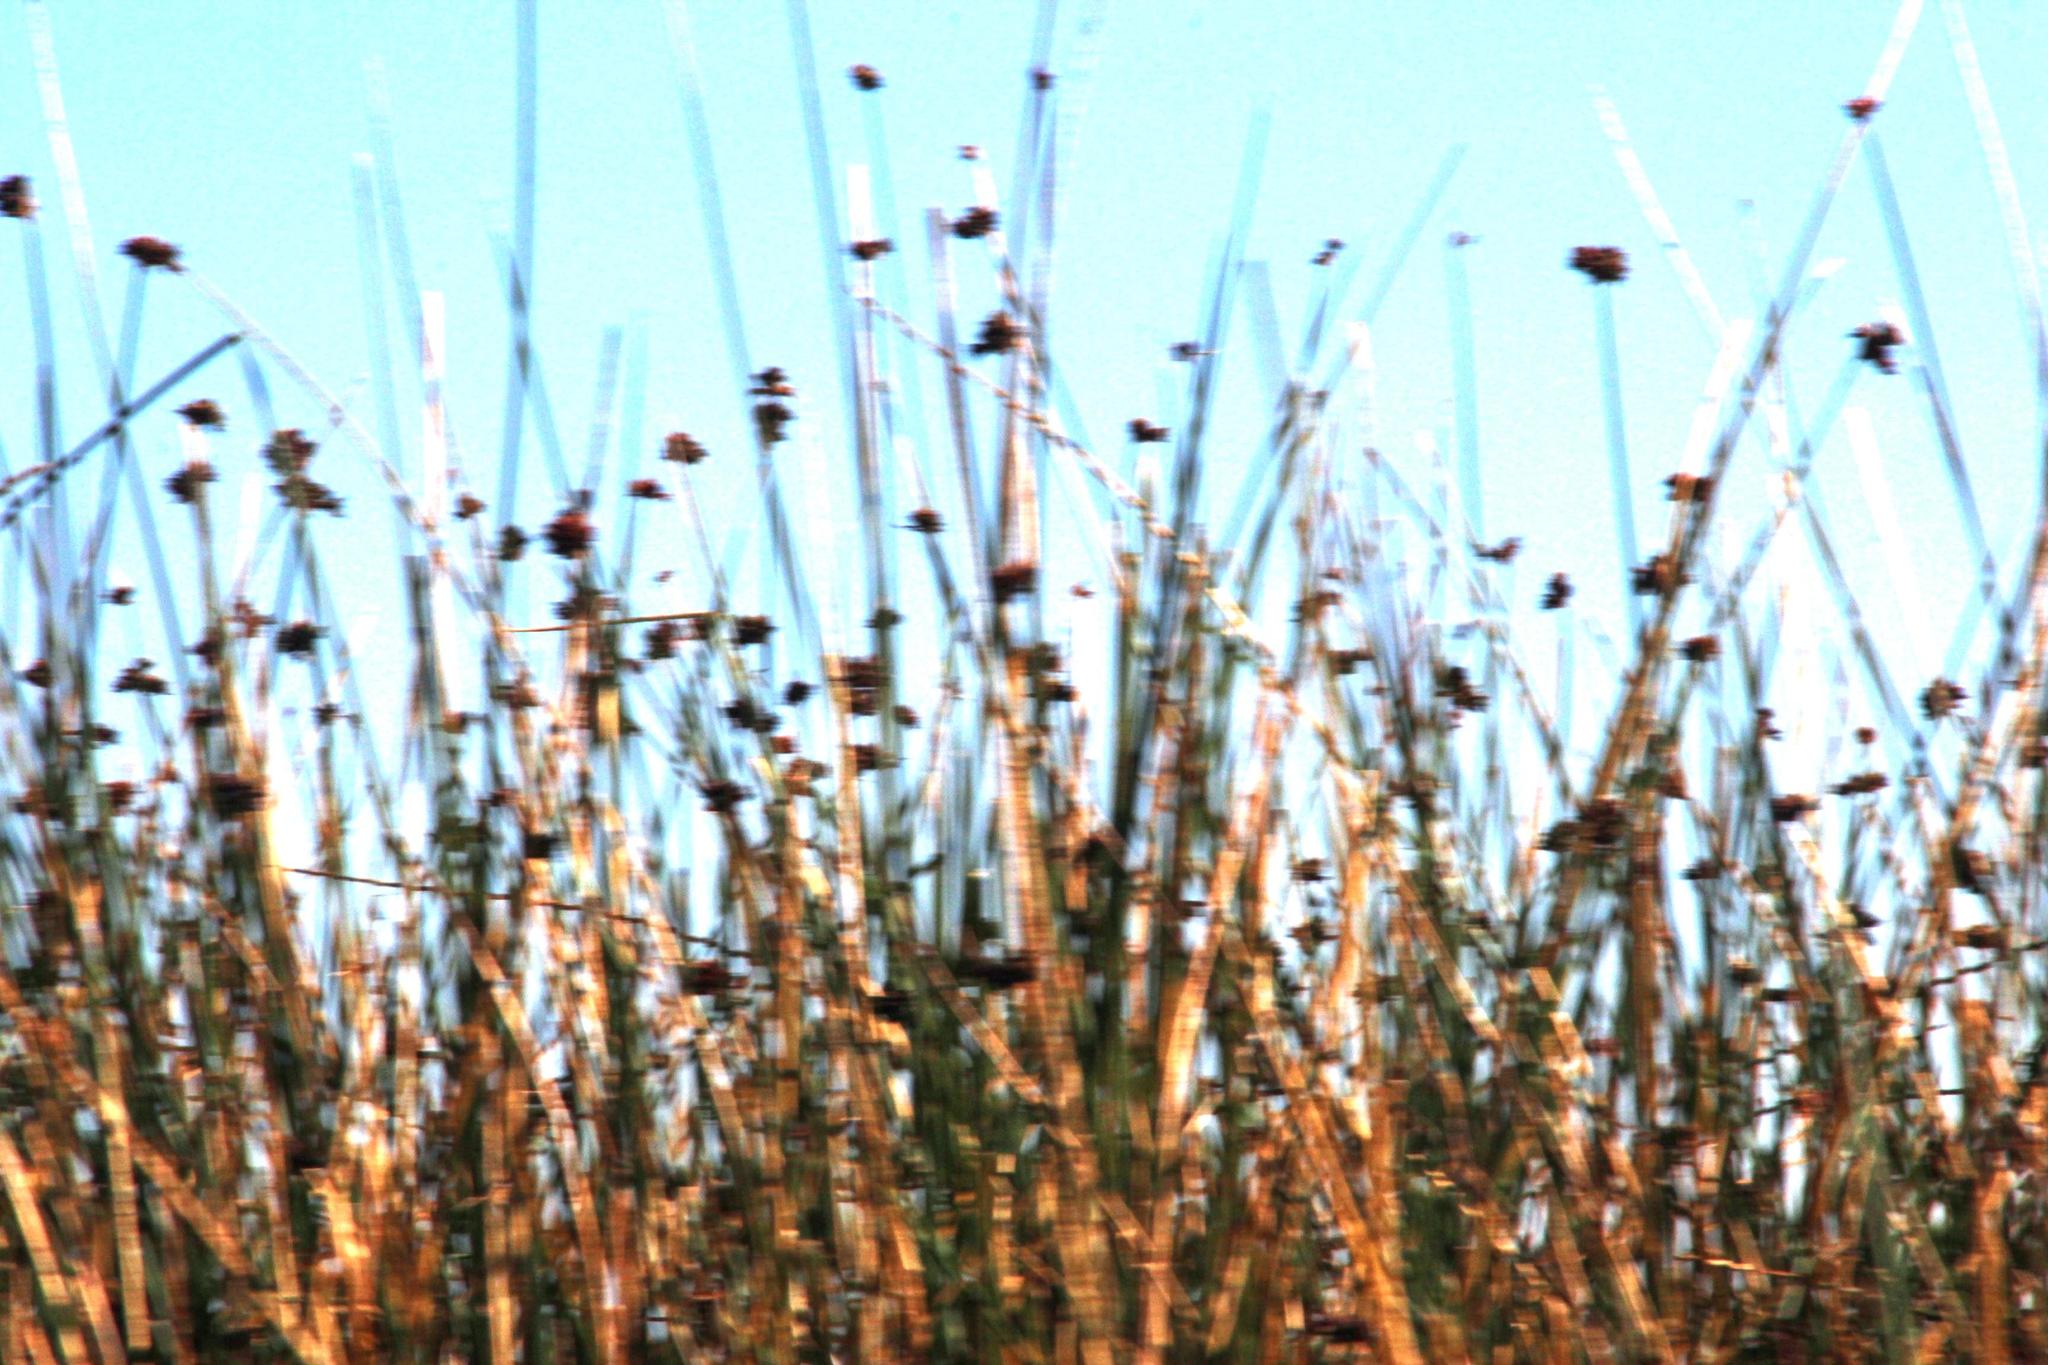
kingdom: Plantae
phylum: Tracheophyta
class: Liliopsida
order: Poales
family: Cyperaceae
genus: Schoenoplectus
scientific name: Schoenoplectus californicus
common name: California bulrush
